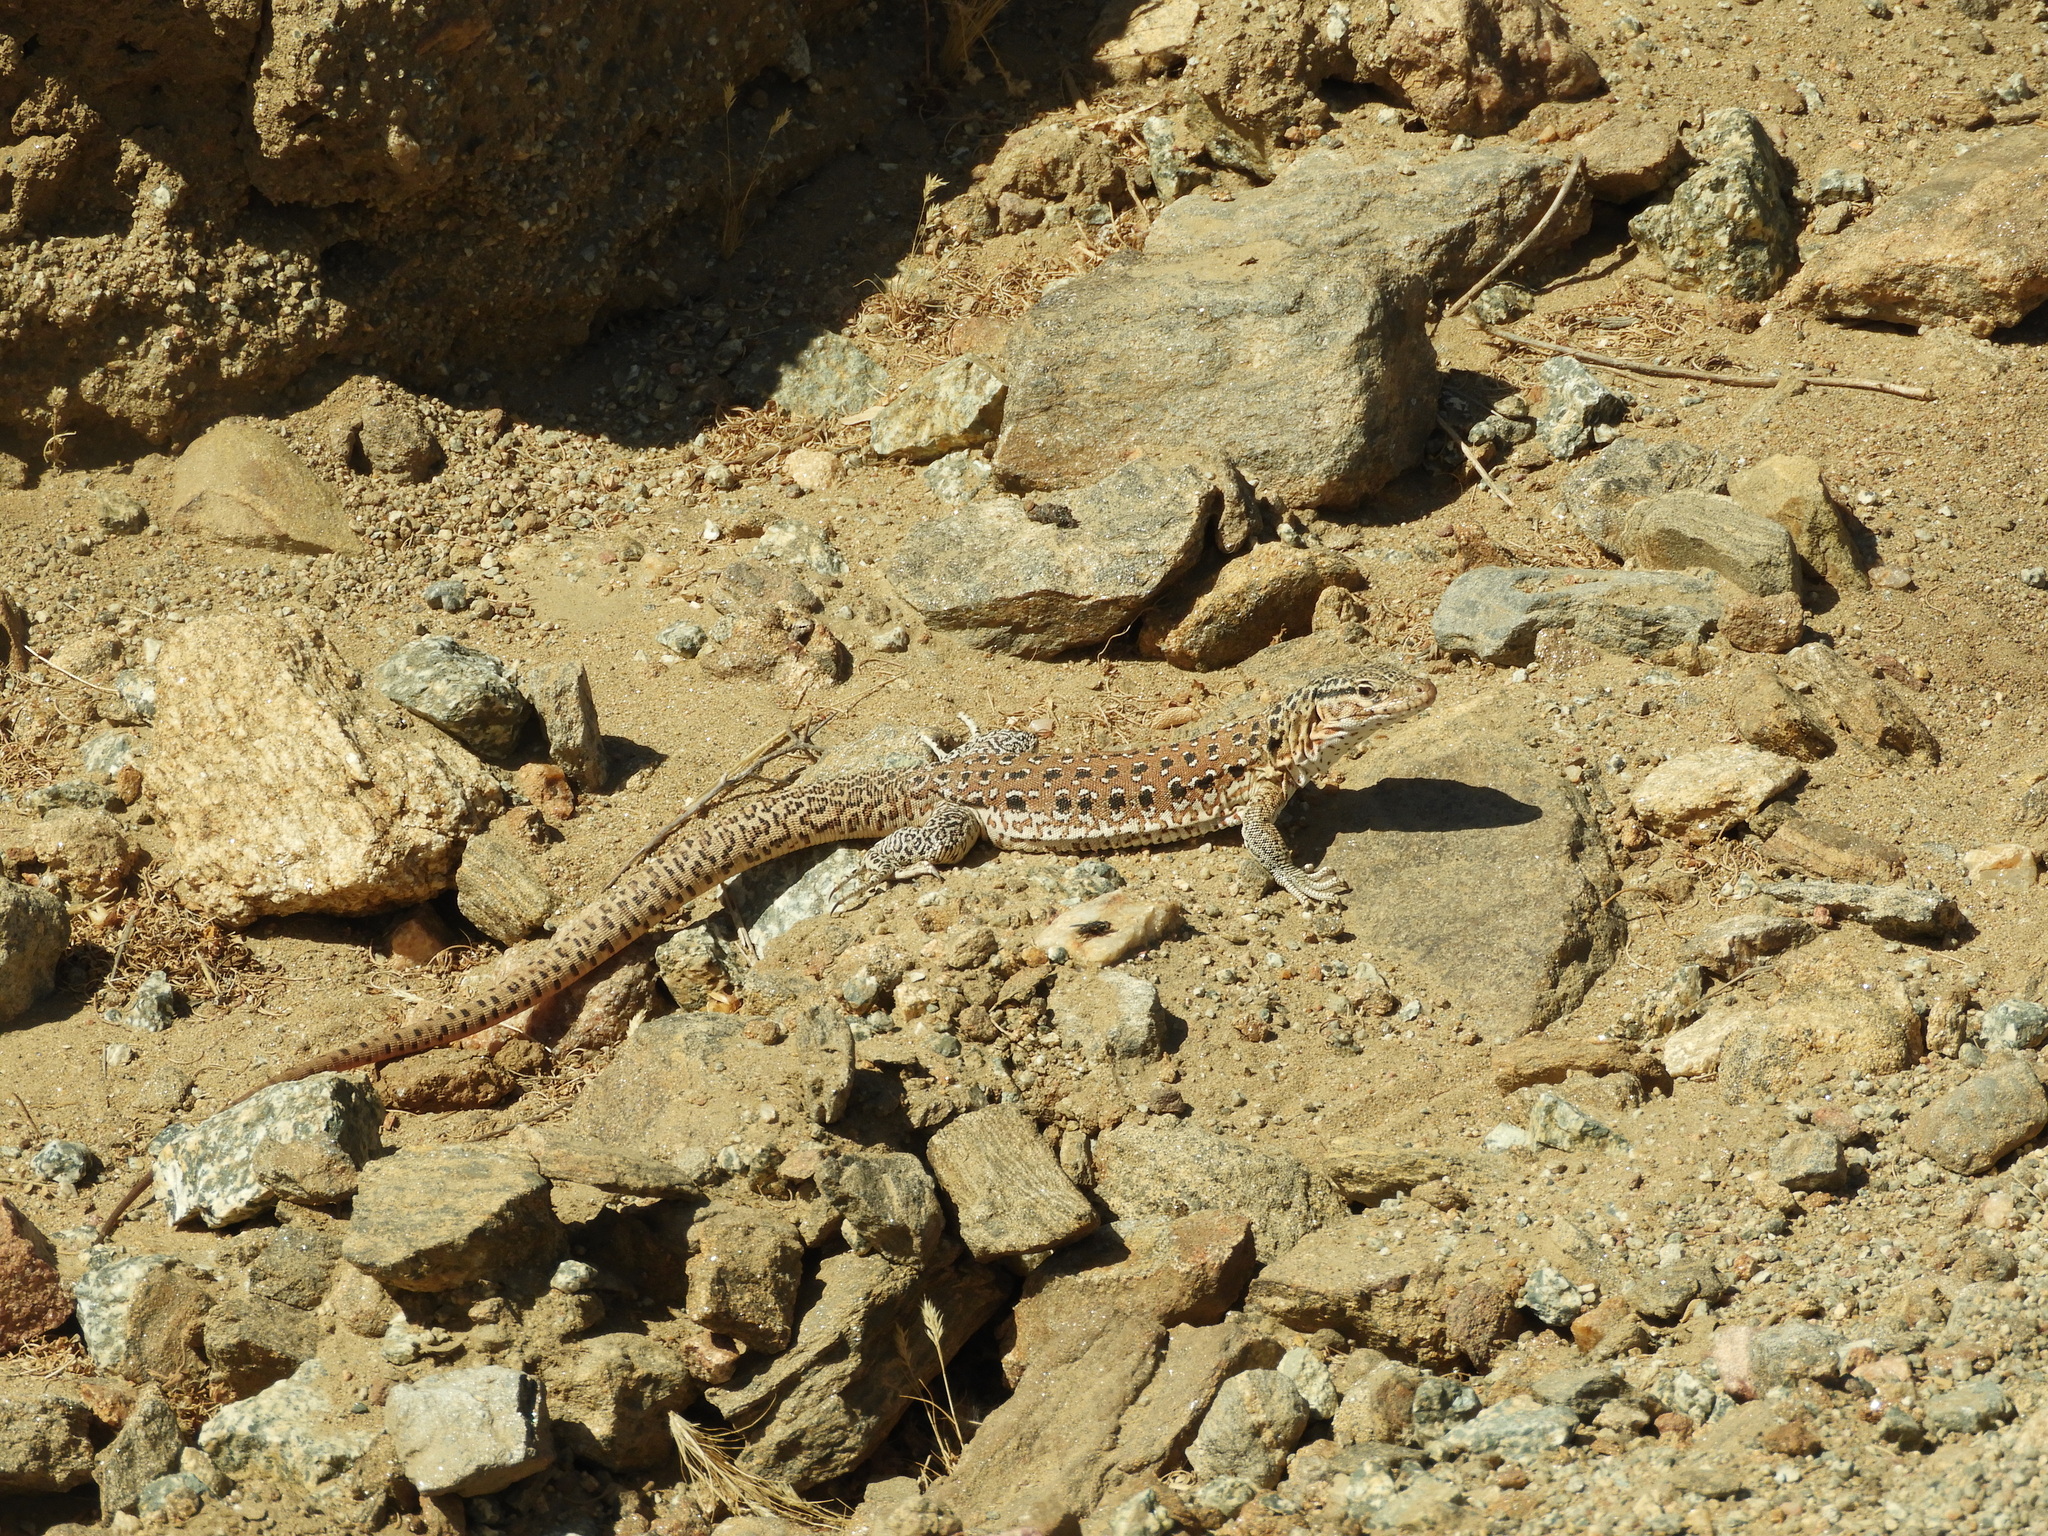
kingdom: Animalia
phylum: Chordata
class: Squamata
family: Teiidae
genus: Callopistes
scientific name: Callopistes maculatus
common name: Spotted false monitor
